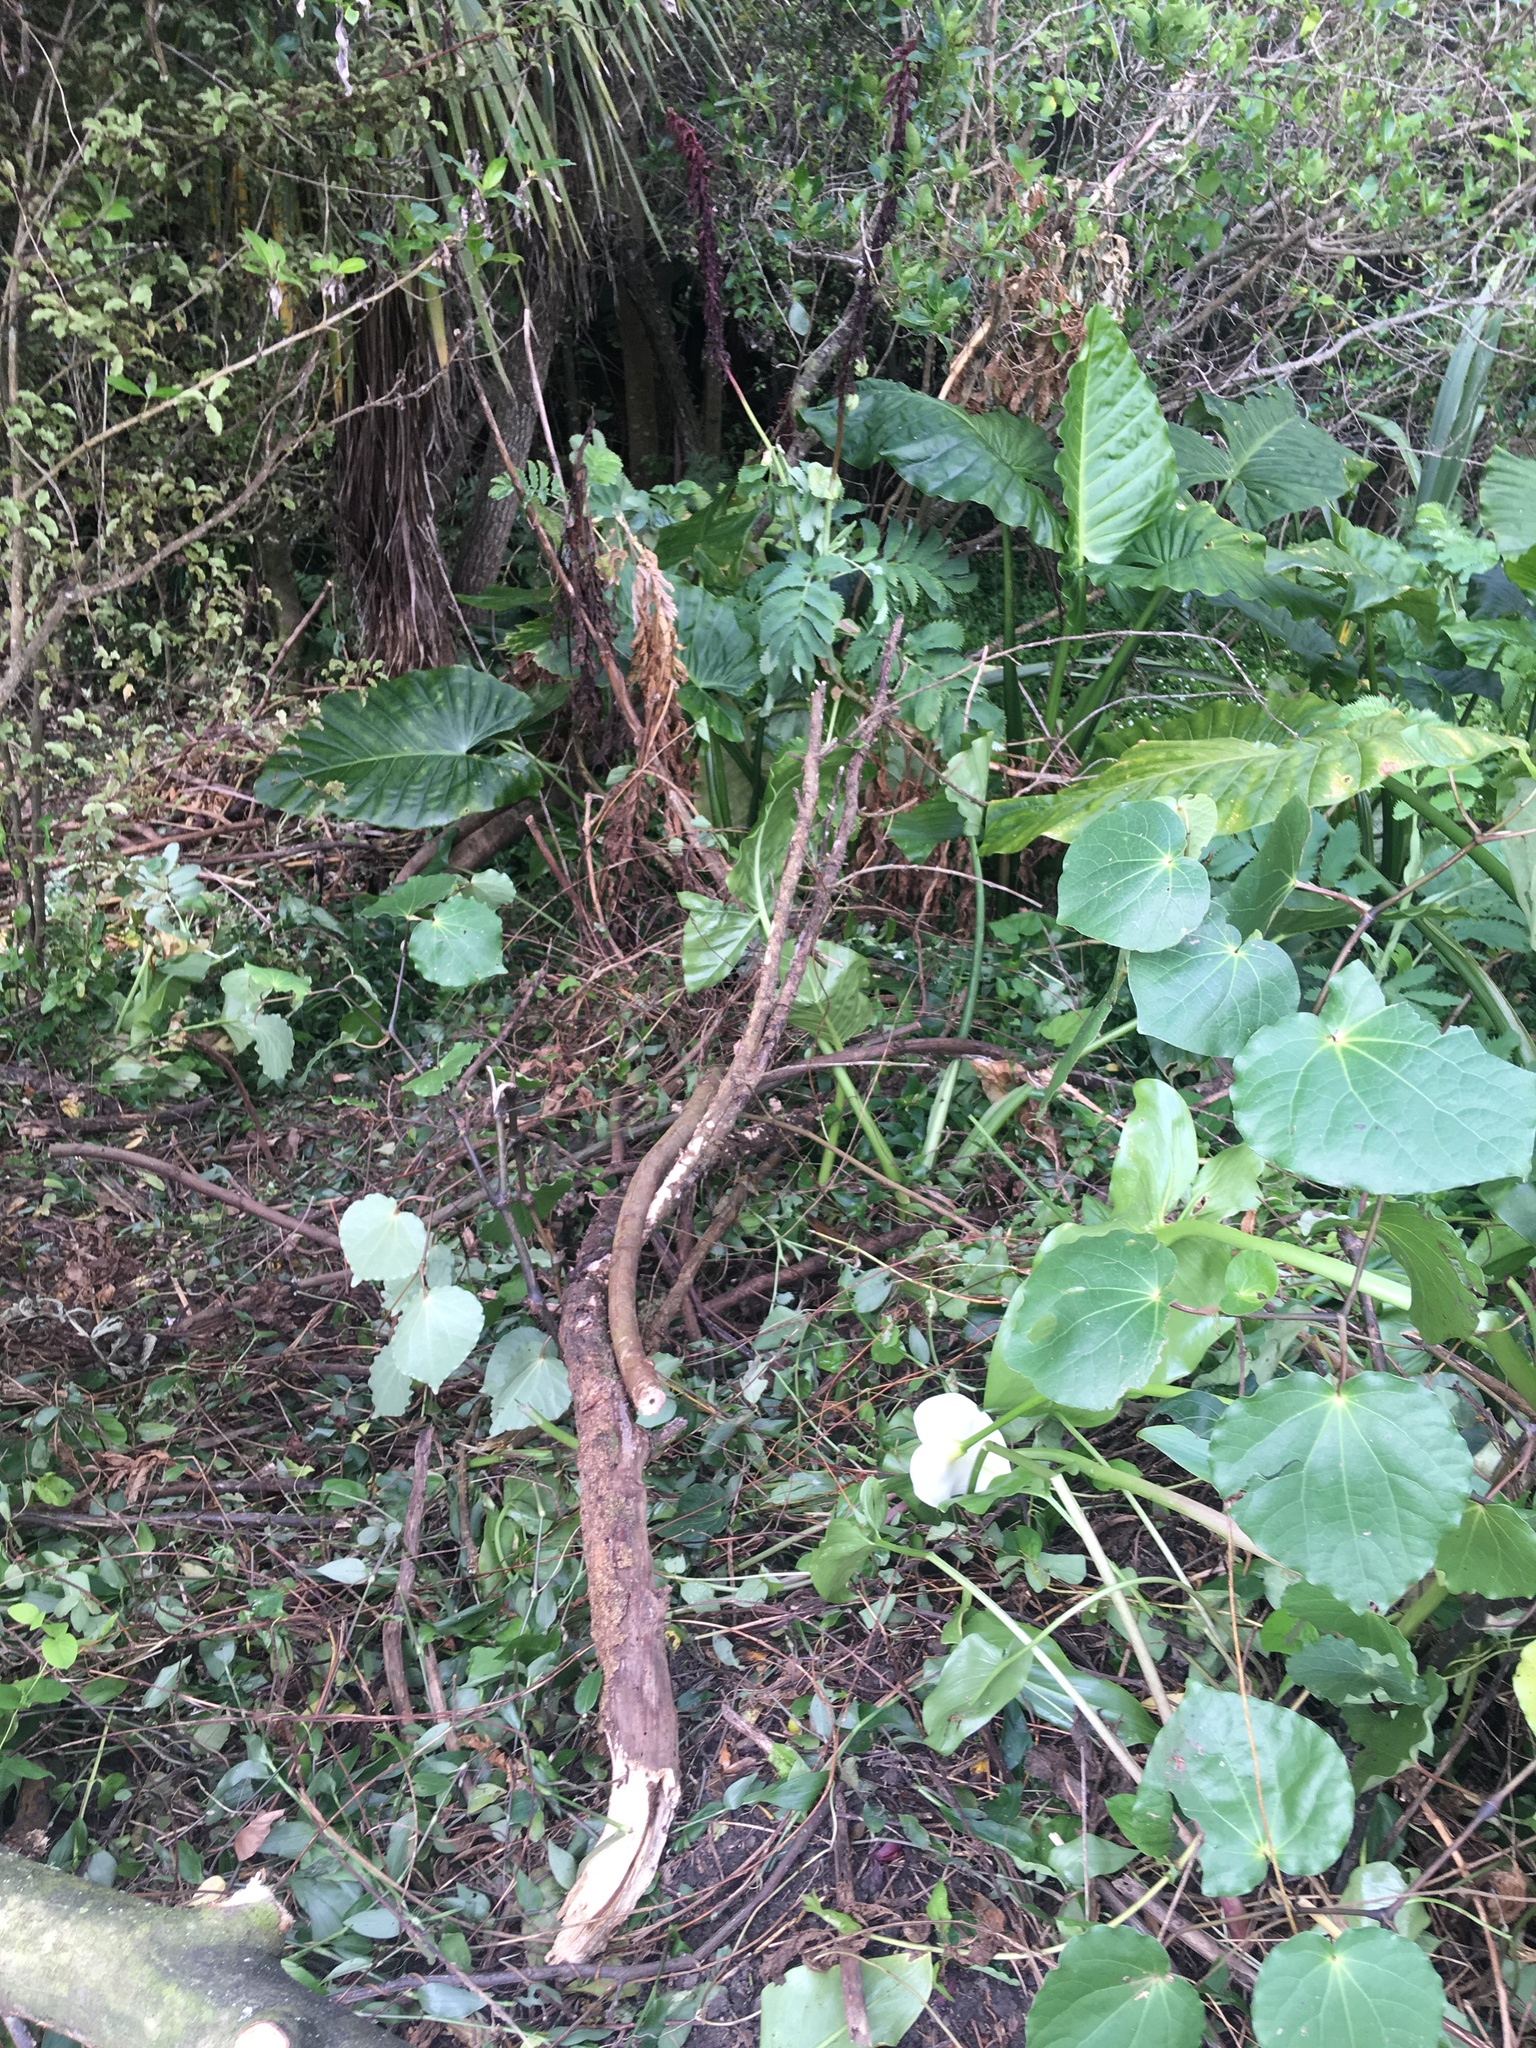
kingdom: Plantae
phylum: Tracheophyta
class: Magnoliopsida
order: Piperales
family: Piperaceae
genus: Macropiper
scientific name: Macropiper excelsum
